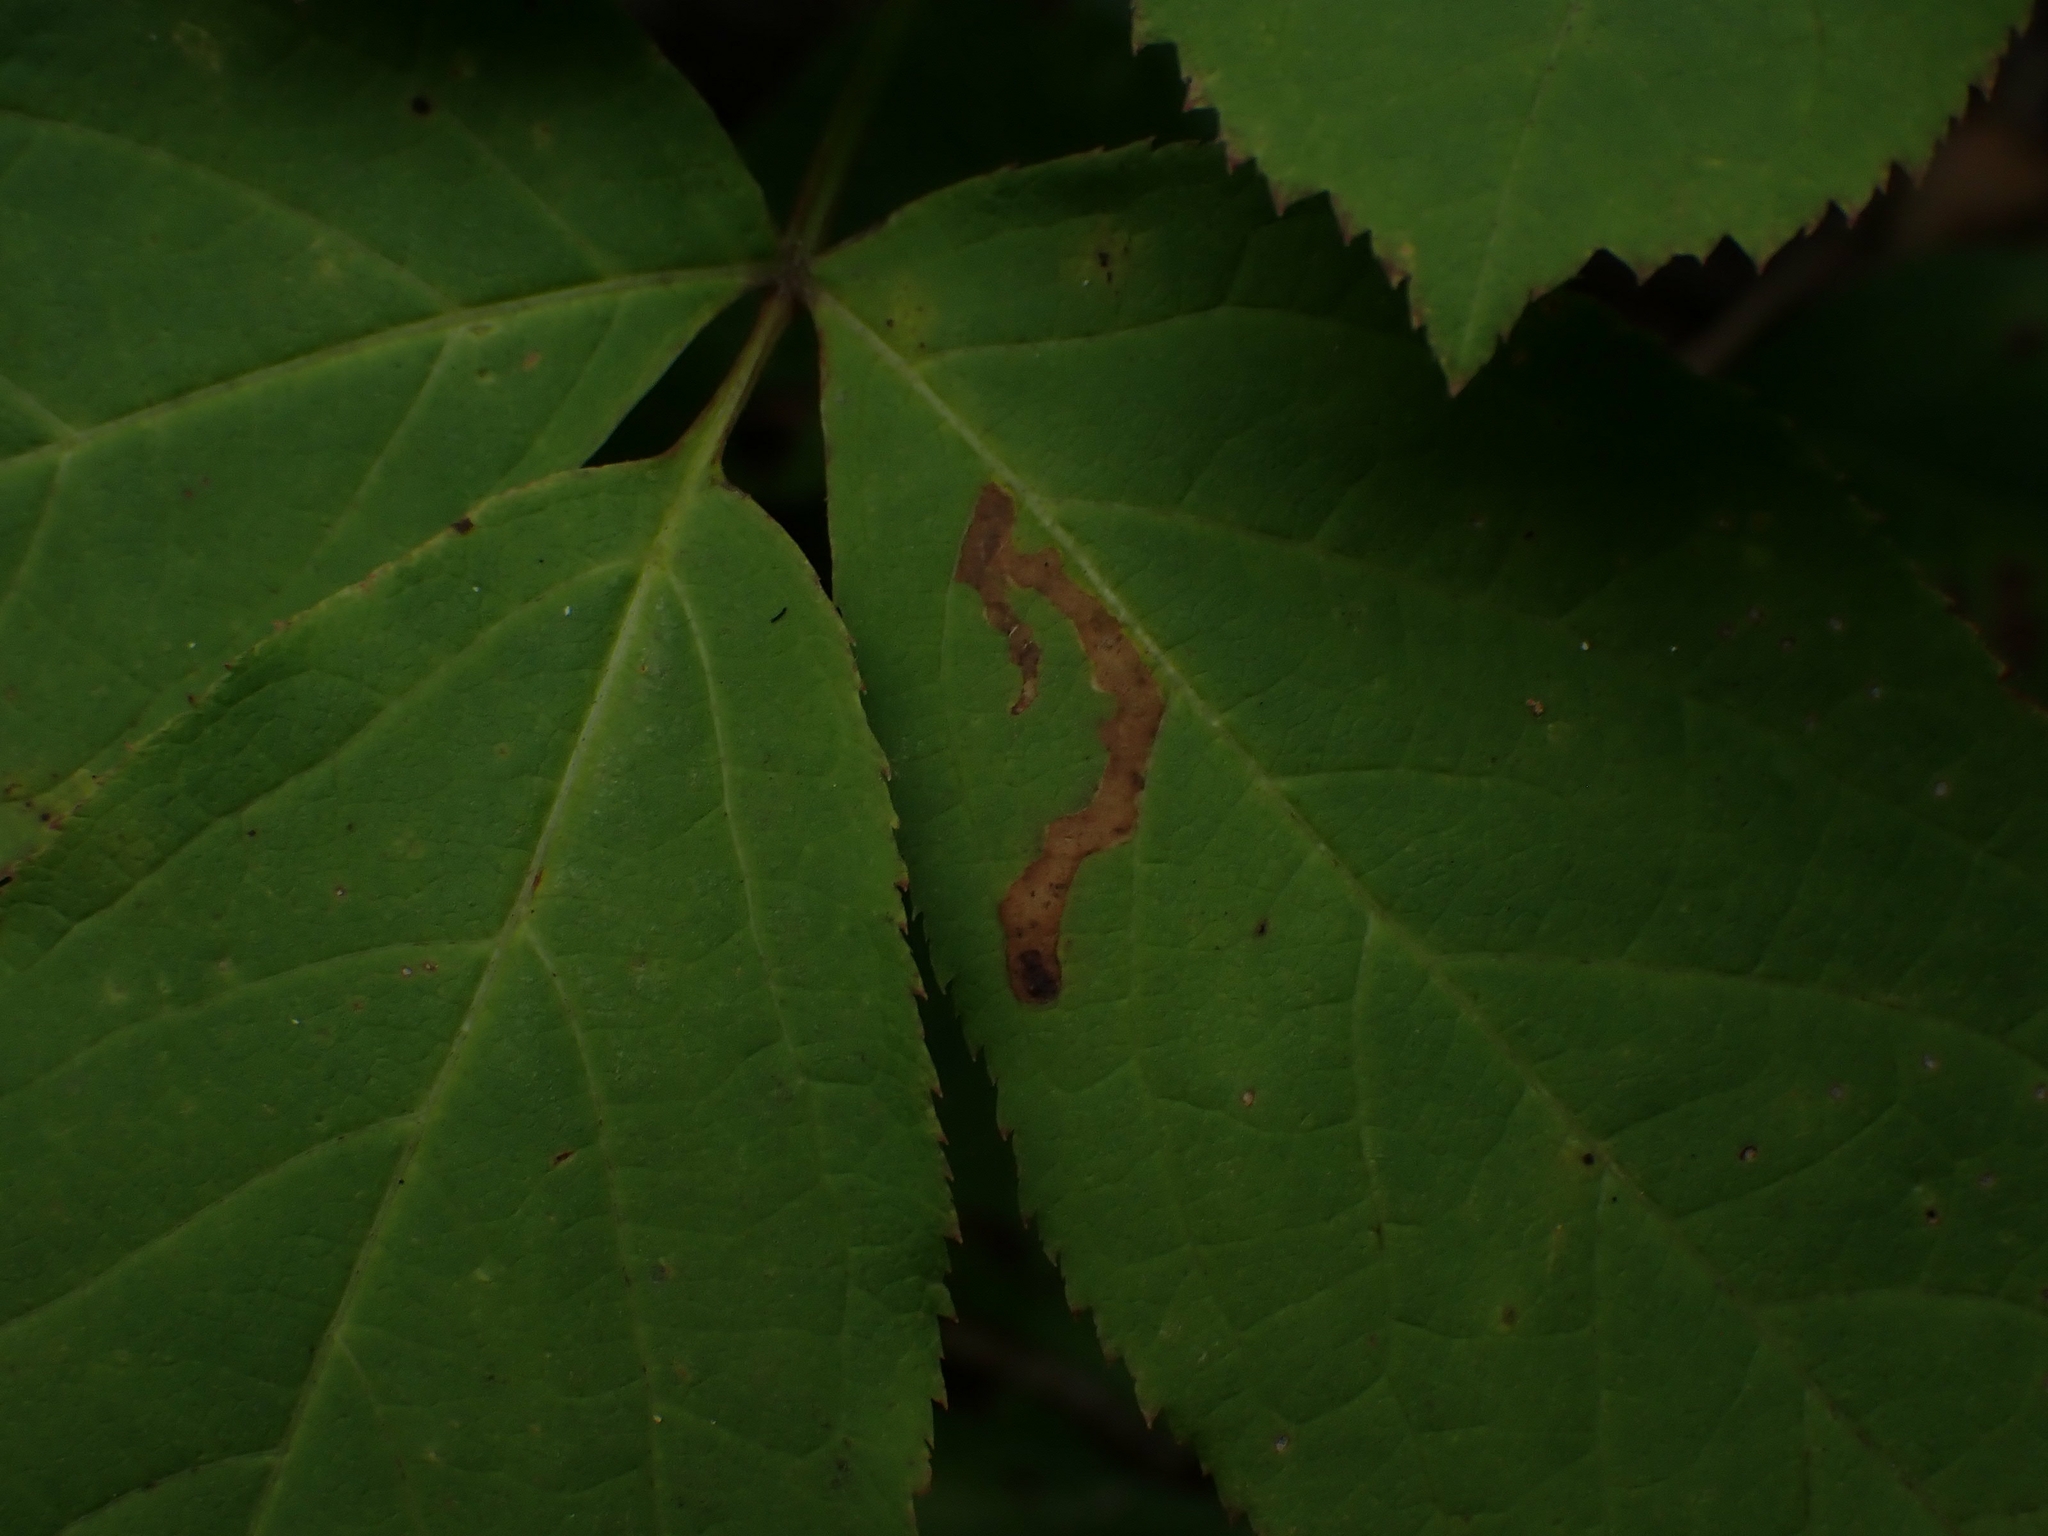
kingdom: Animalia
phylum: Arthropoda
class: Insecta
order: Diptera
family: Agromyzidae
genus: Phytomyza
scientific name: Phytomyza aralivora
